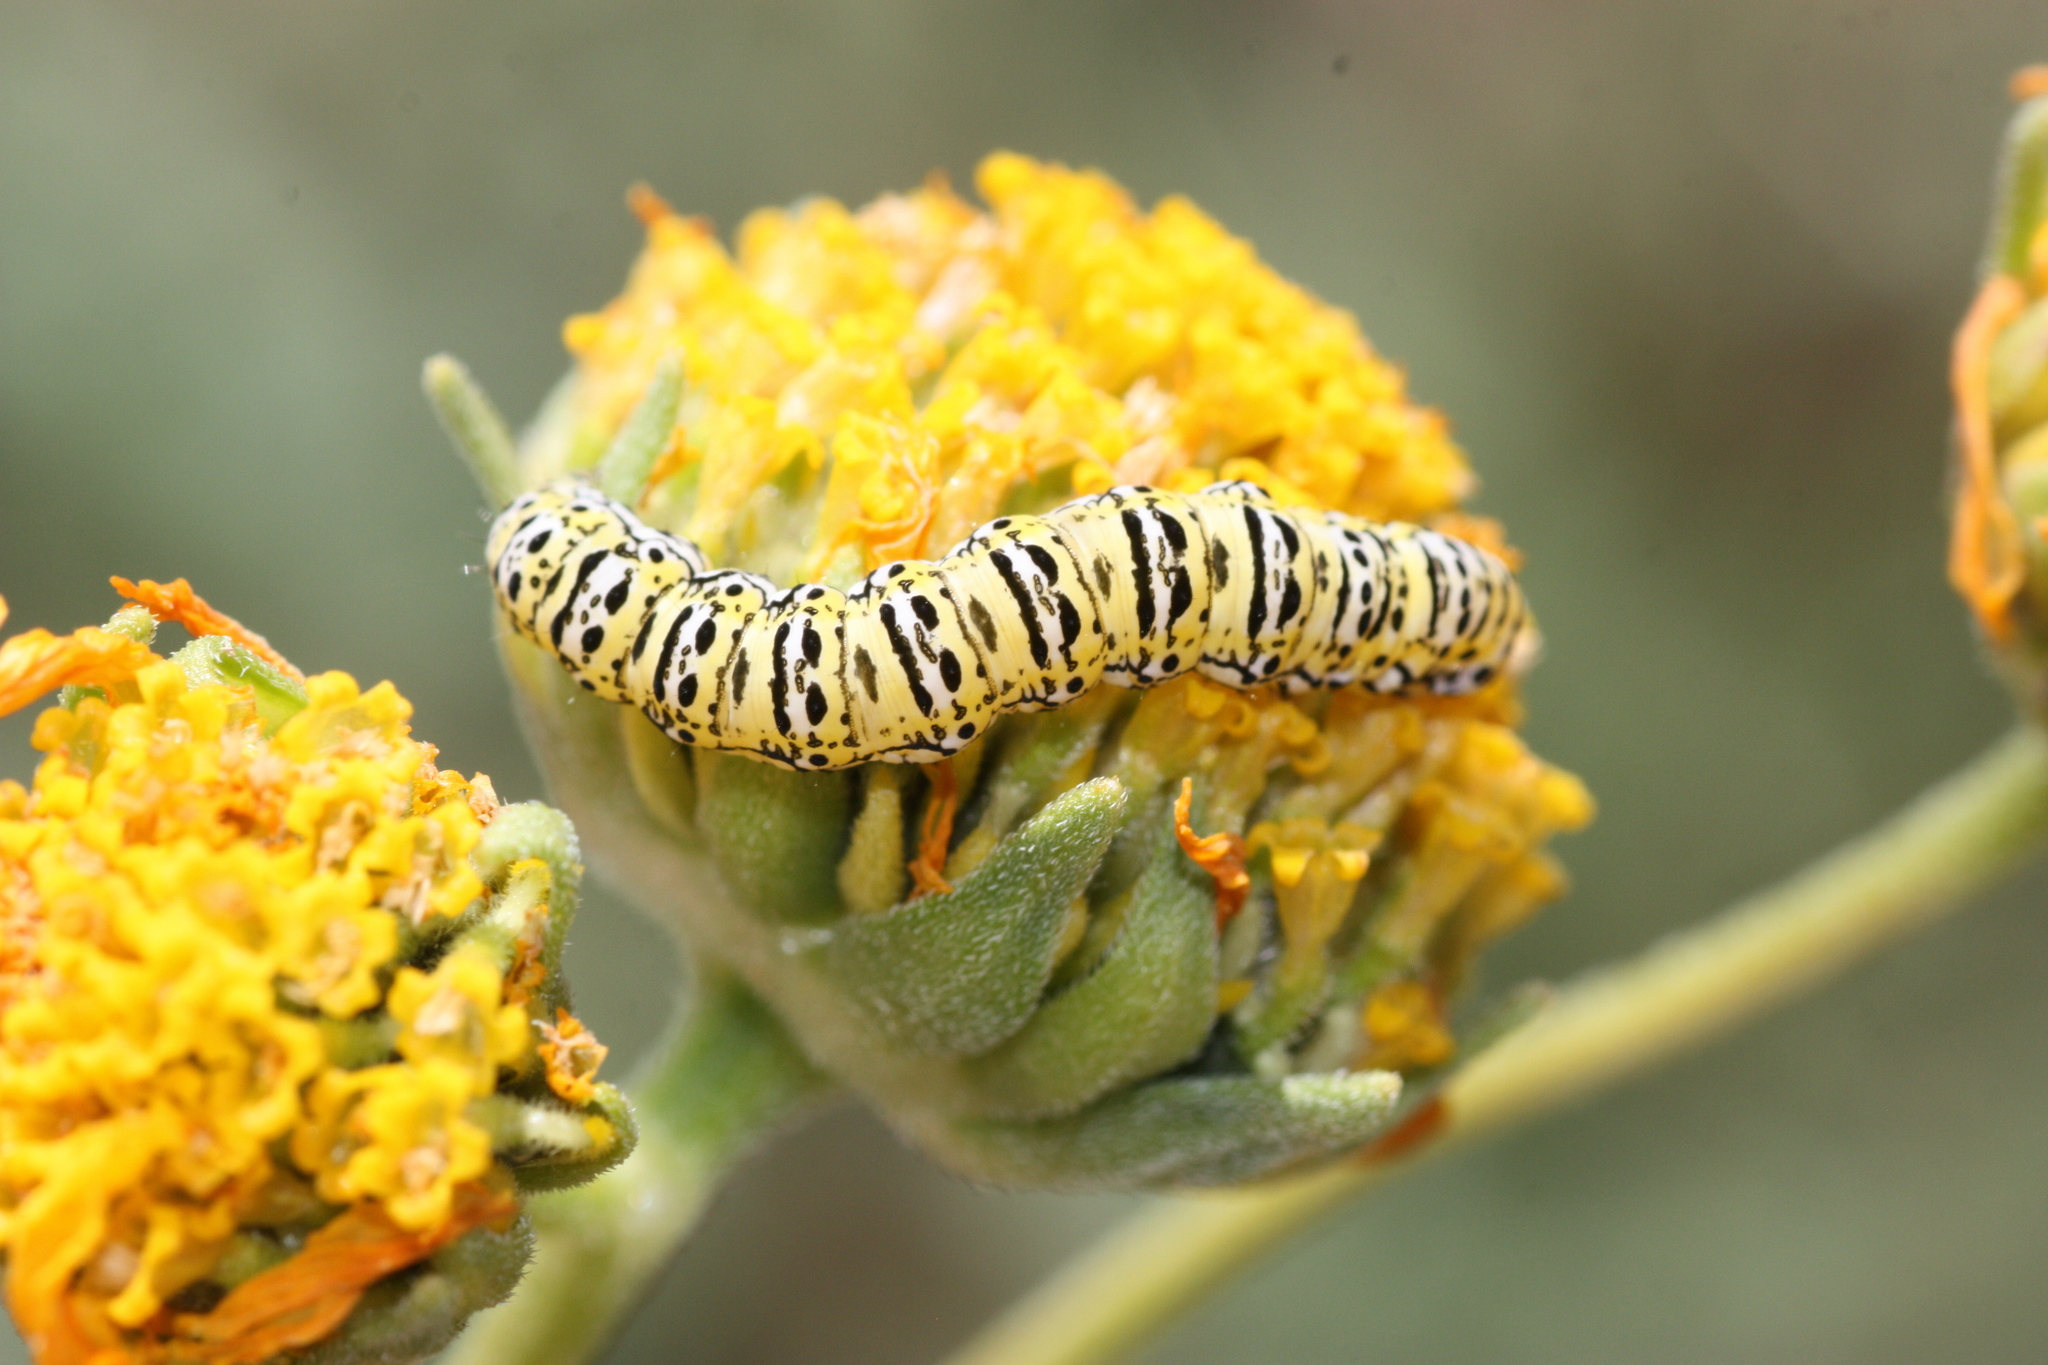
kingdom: Animalia
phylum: Arthropoda
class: Insecta
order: Lepidoptera
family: Noctuidae
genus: Basilodes
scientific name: Basilodes chrysopis
